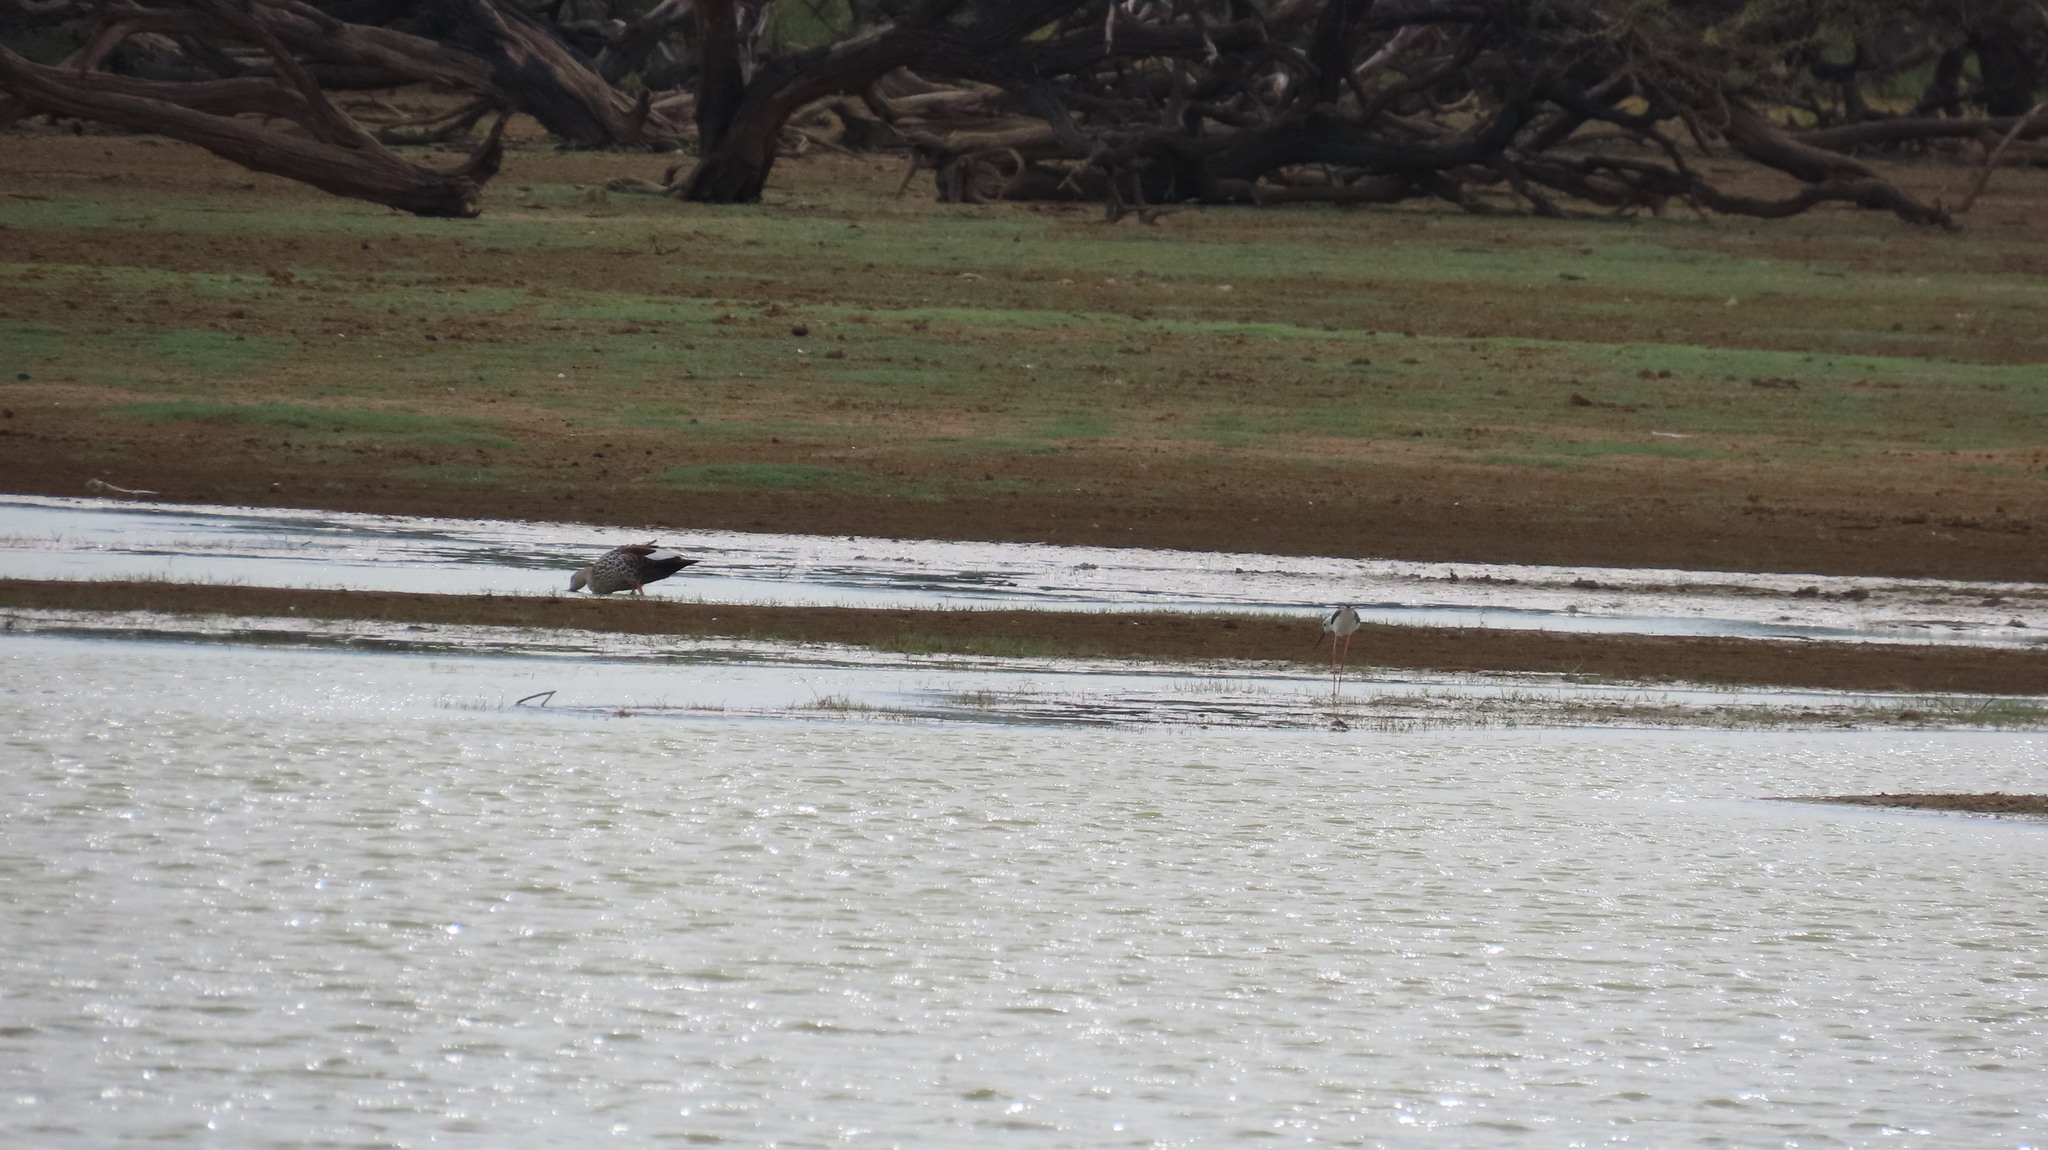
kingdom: Animalia
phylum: Chordata
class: Aves
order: Anseriformes
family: Anatidae
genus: Anas
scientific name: Anas poecilorhyncha
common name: Indian spot-billed duck
